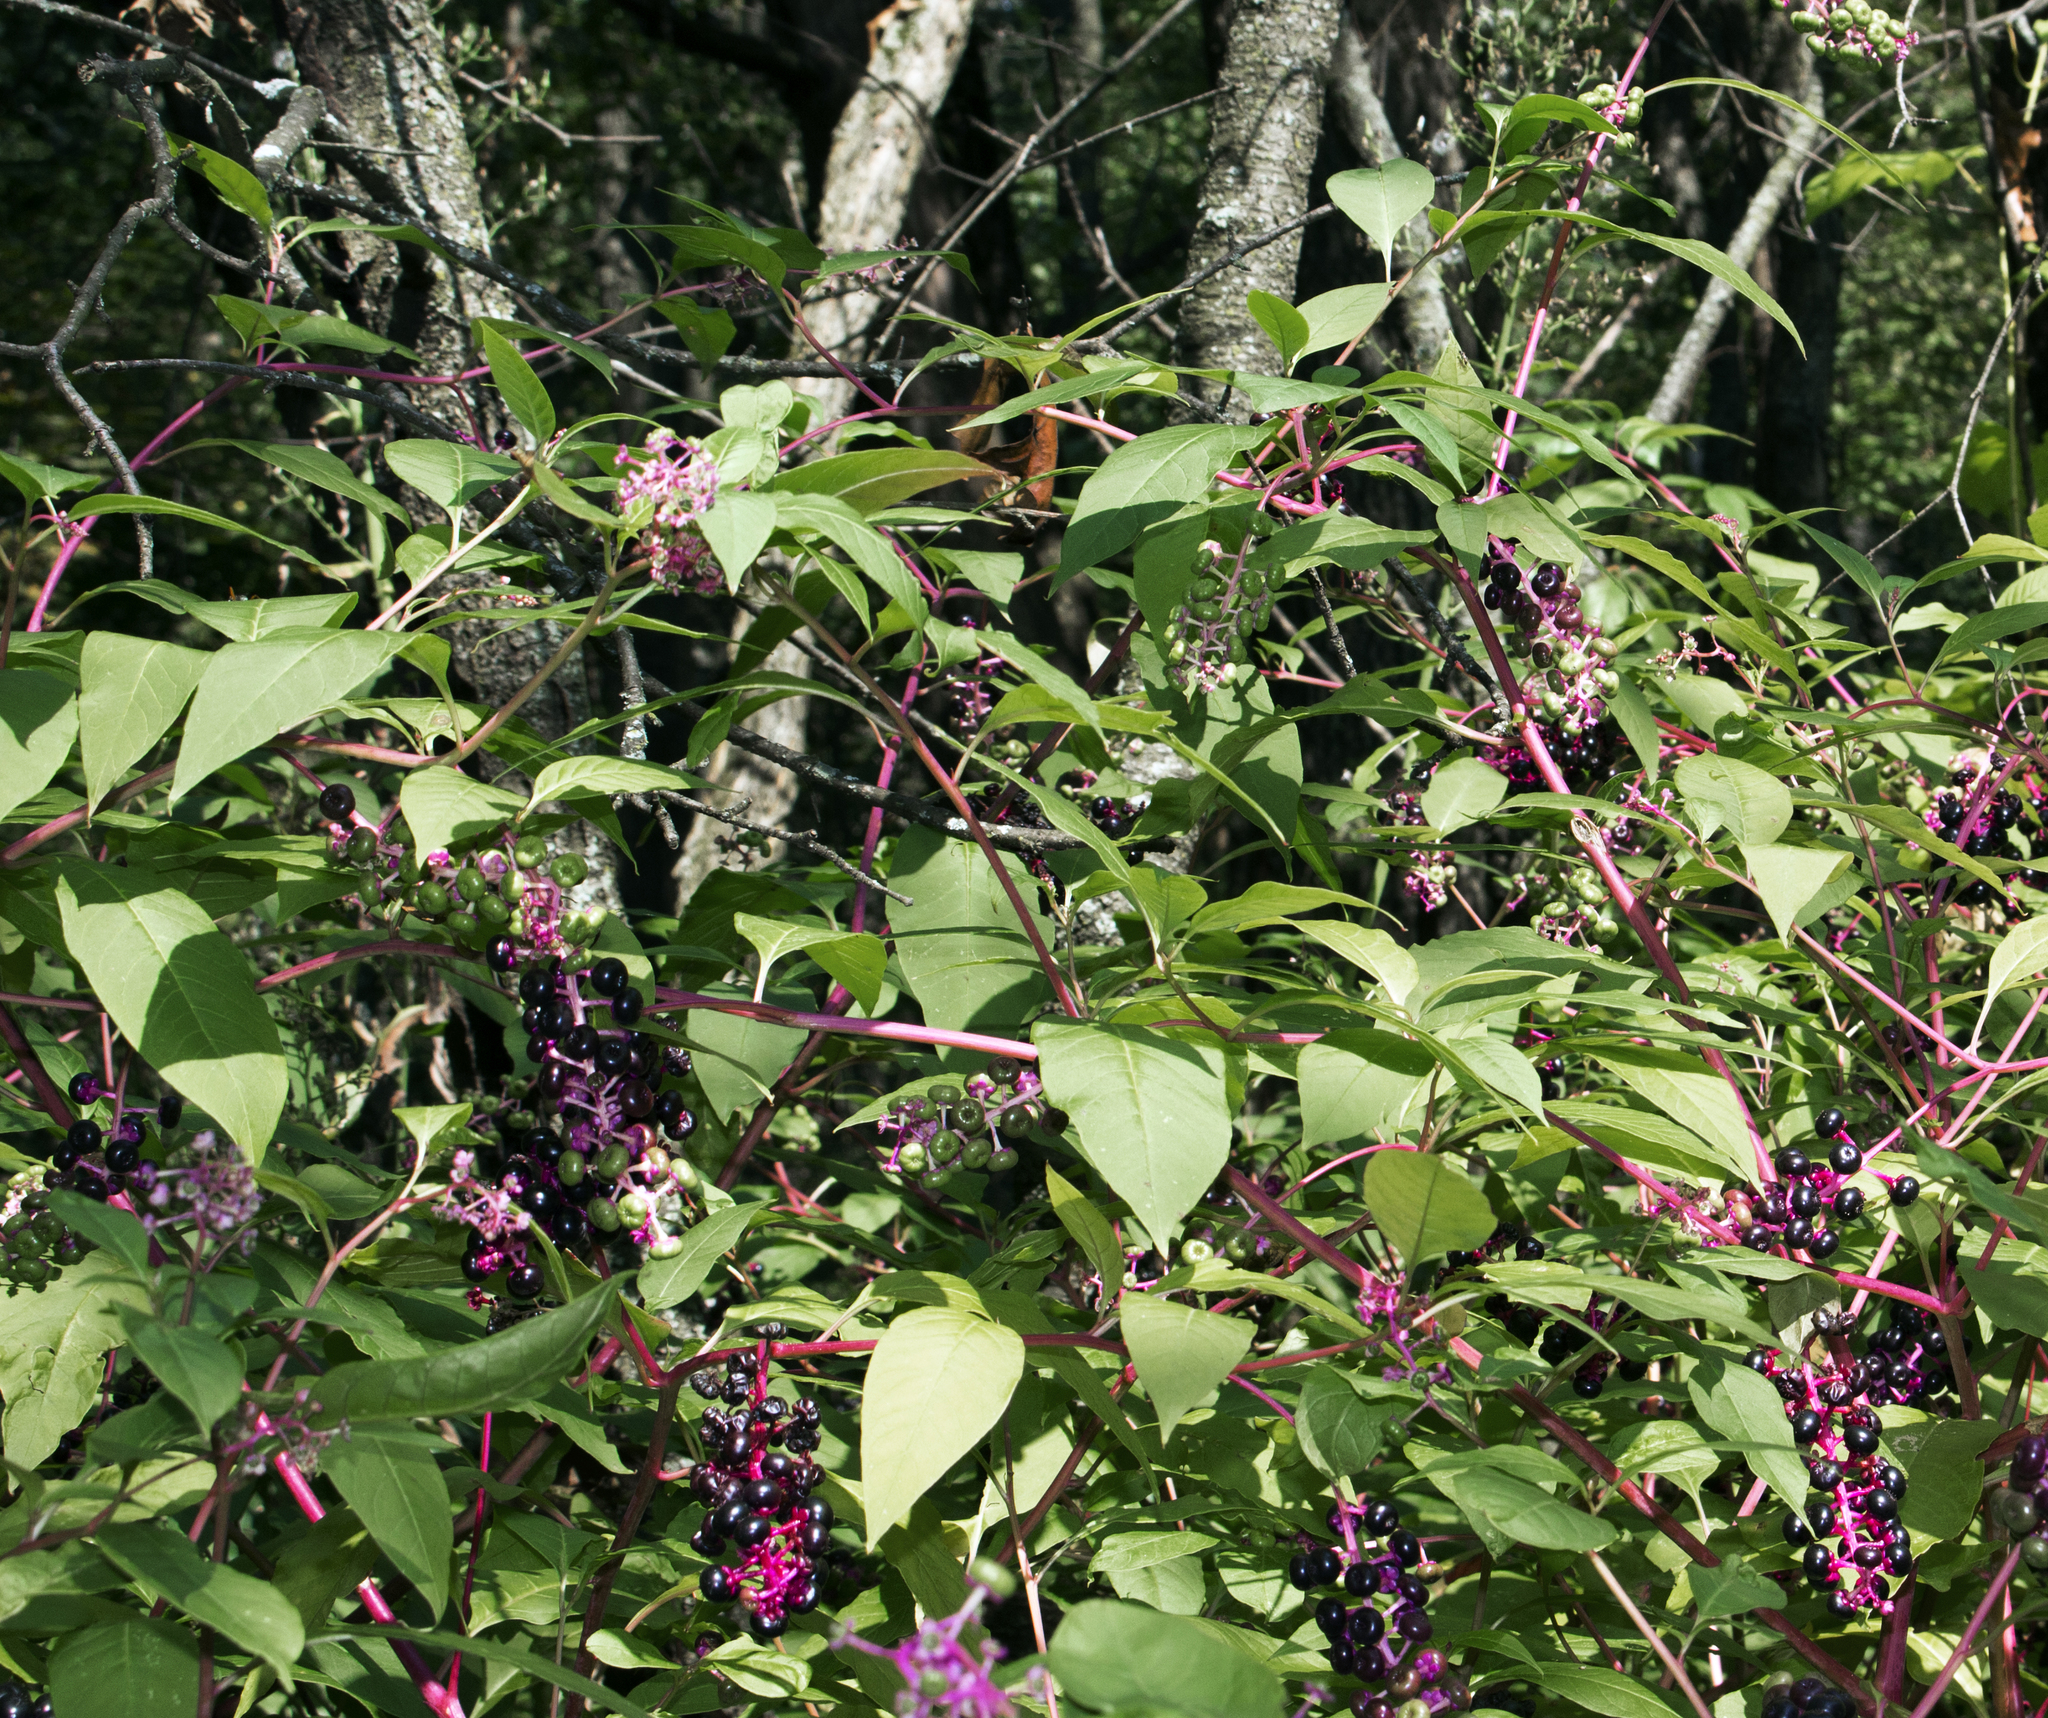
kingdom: Plantae
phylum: Tracheophyta
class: Magnoliopsida
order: Caryophyllales
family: Phytolaccaceae
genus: Phytolacca
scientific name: Phytolacca americana
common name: American pokeweed
